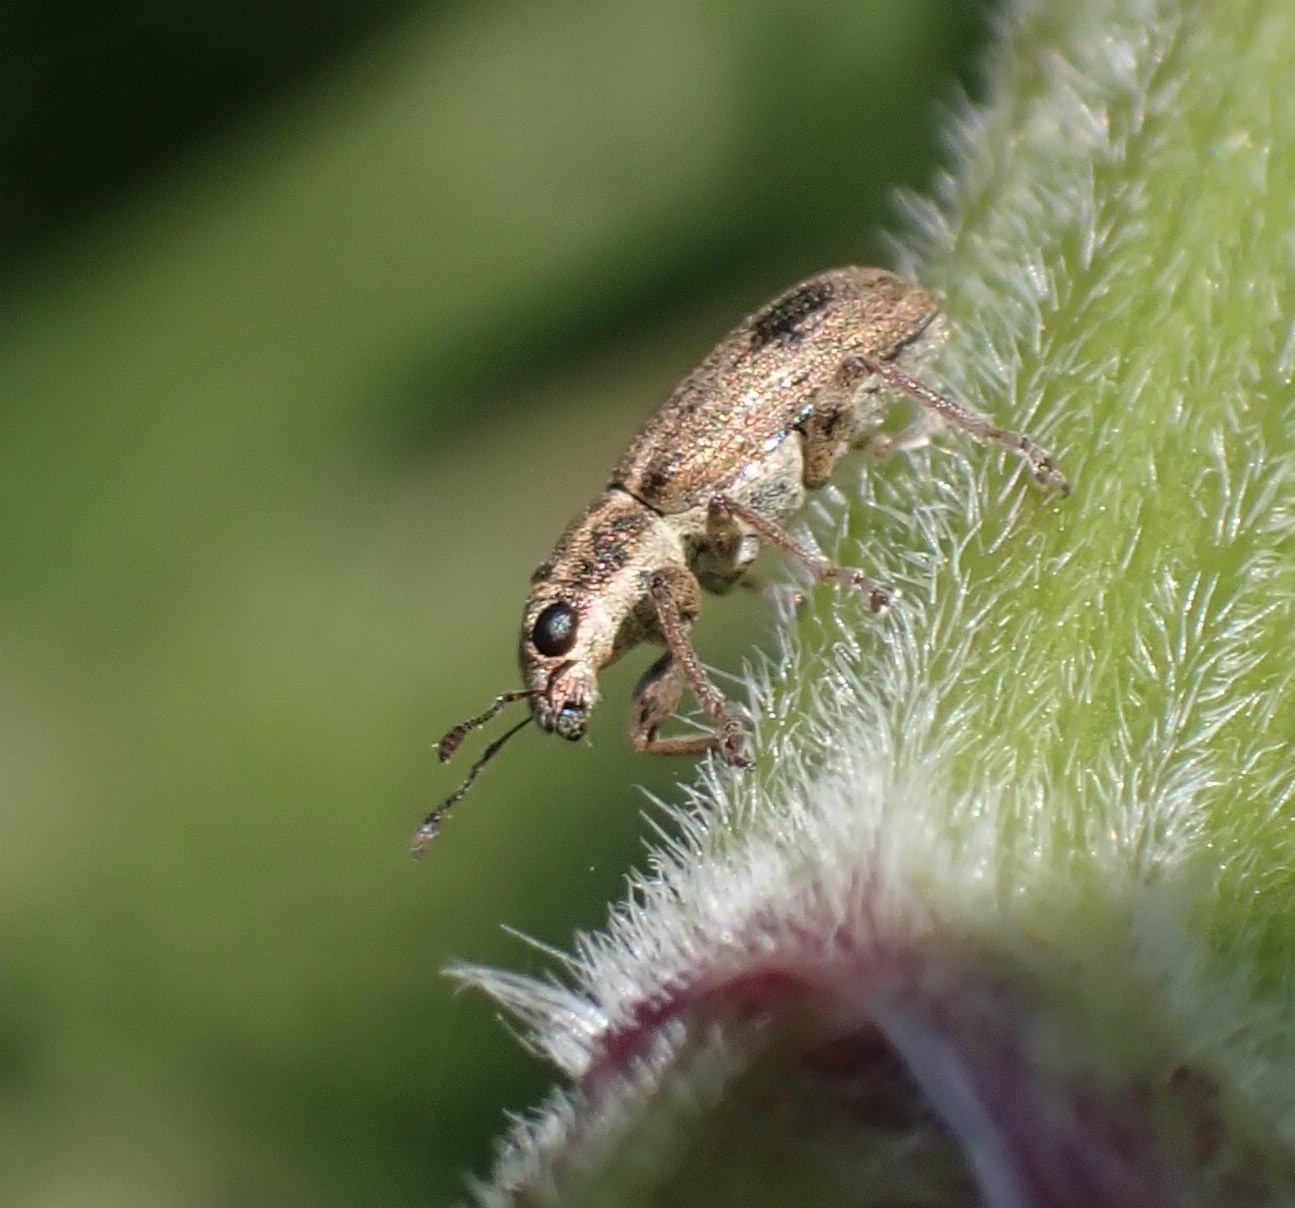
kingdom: Animalia
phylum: Arthropoda
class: Insecta
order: Coleoptera
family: Curculionidae
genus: Sitona
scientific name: Sitona lineatus
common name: Weevil
